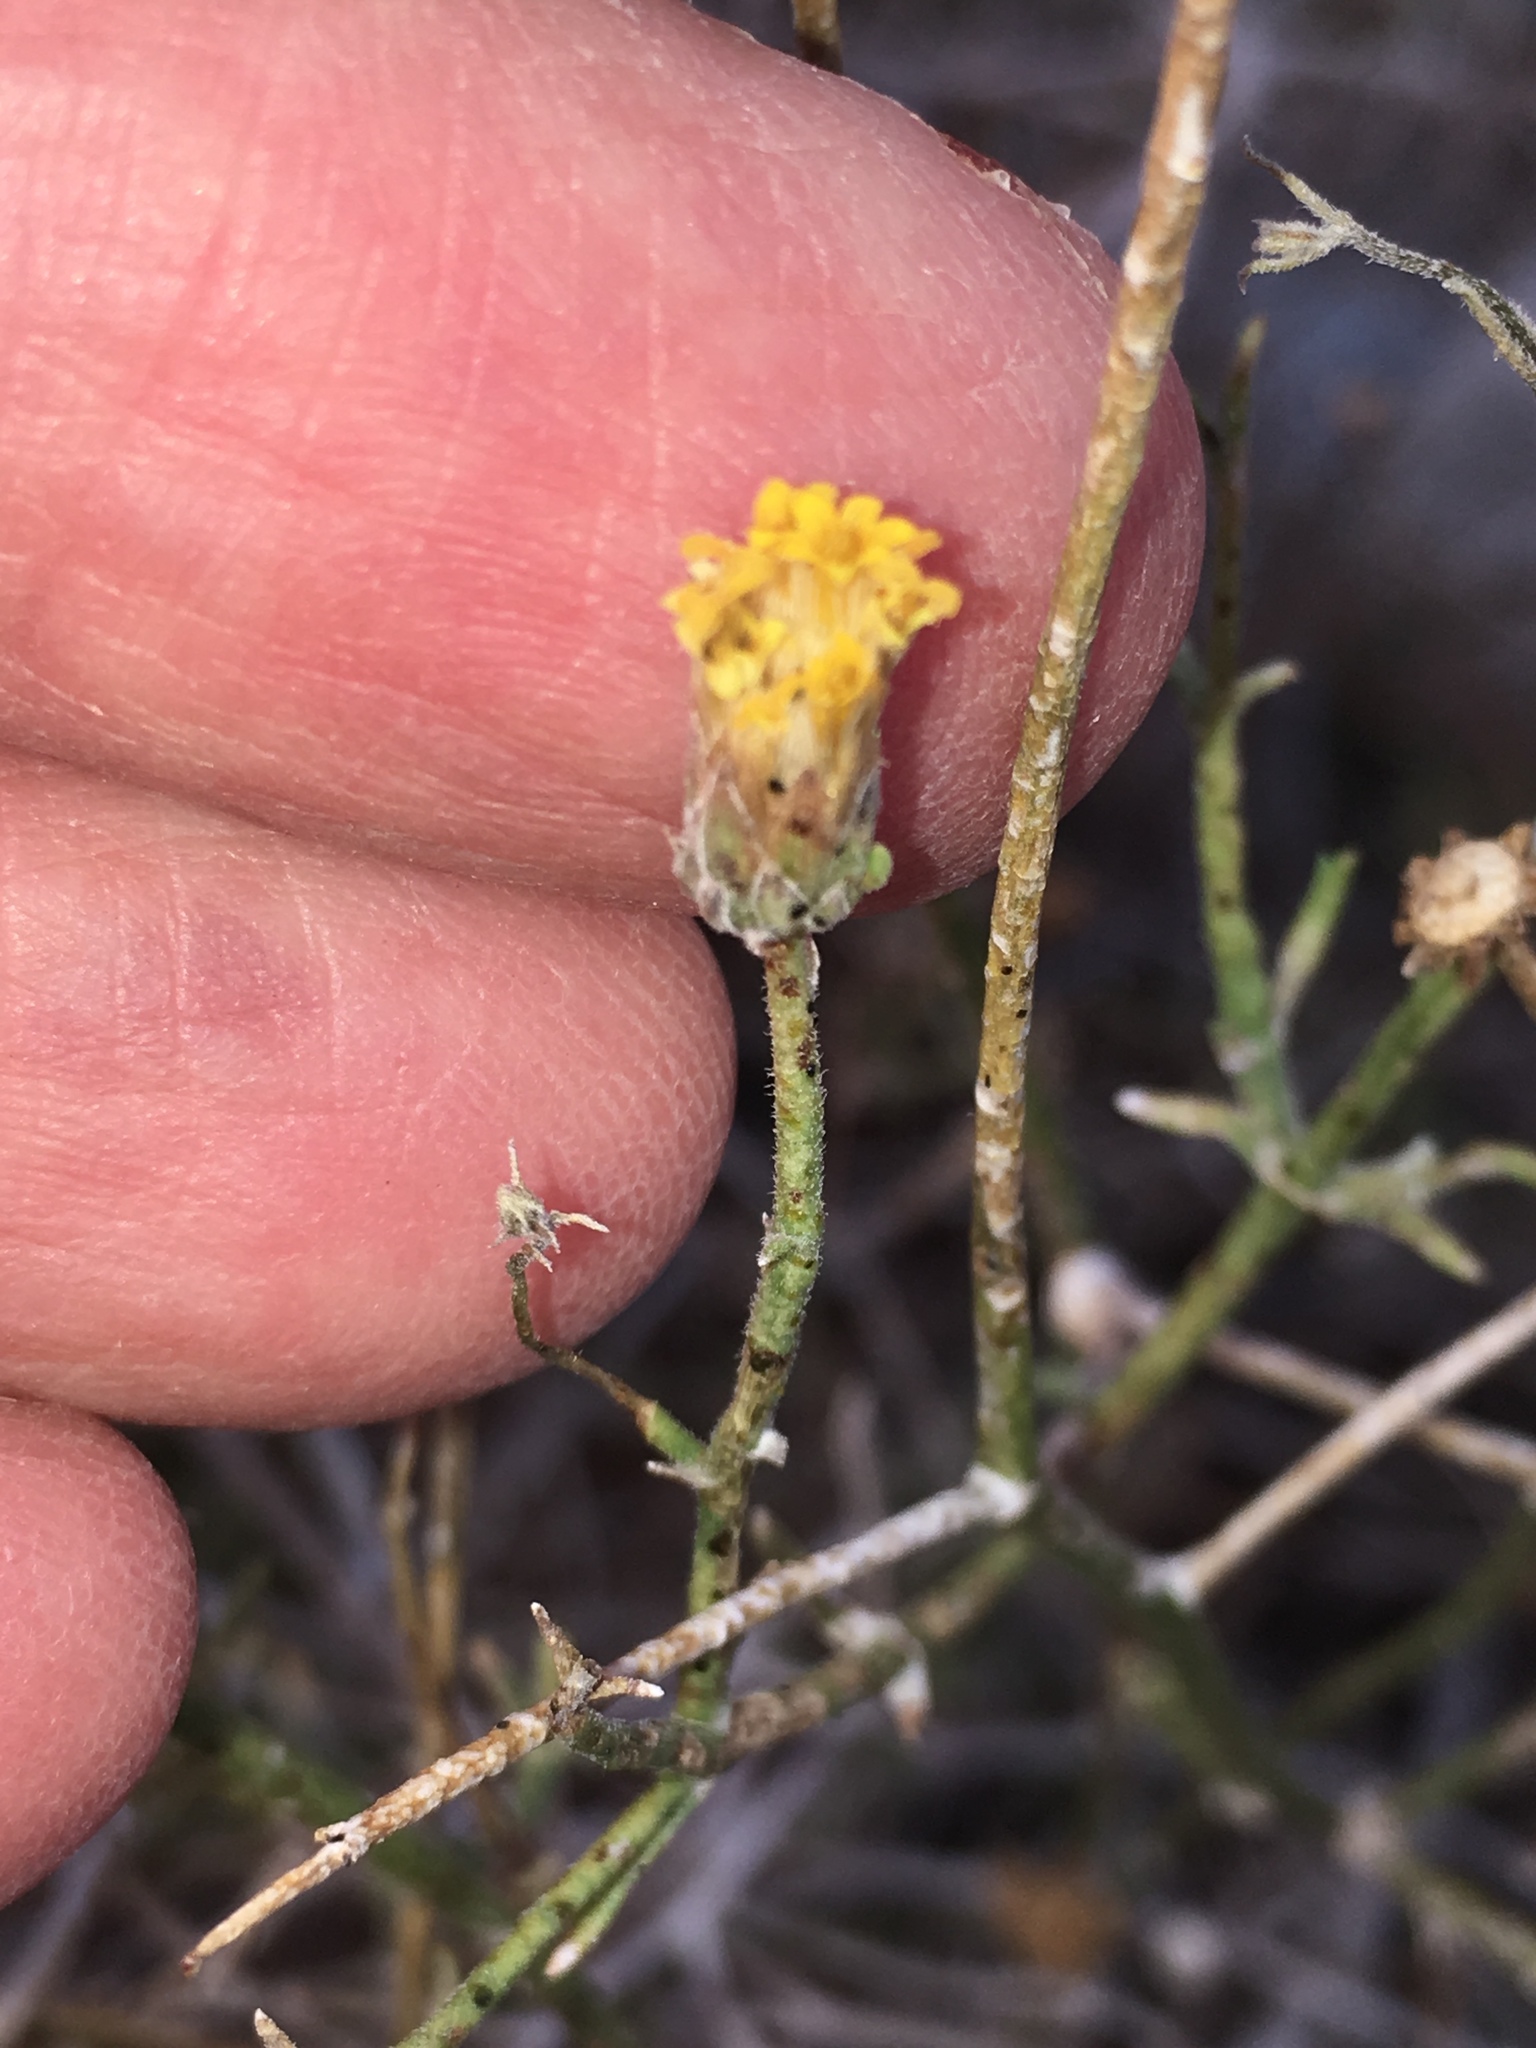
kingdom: Plantae
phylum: Tracheophyta
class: Magnoliopsida
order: Asterales
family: Asteraceae
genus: Bebbia
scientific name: Bebbia juncea
